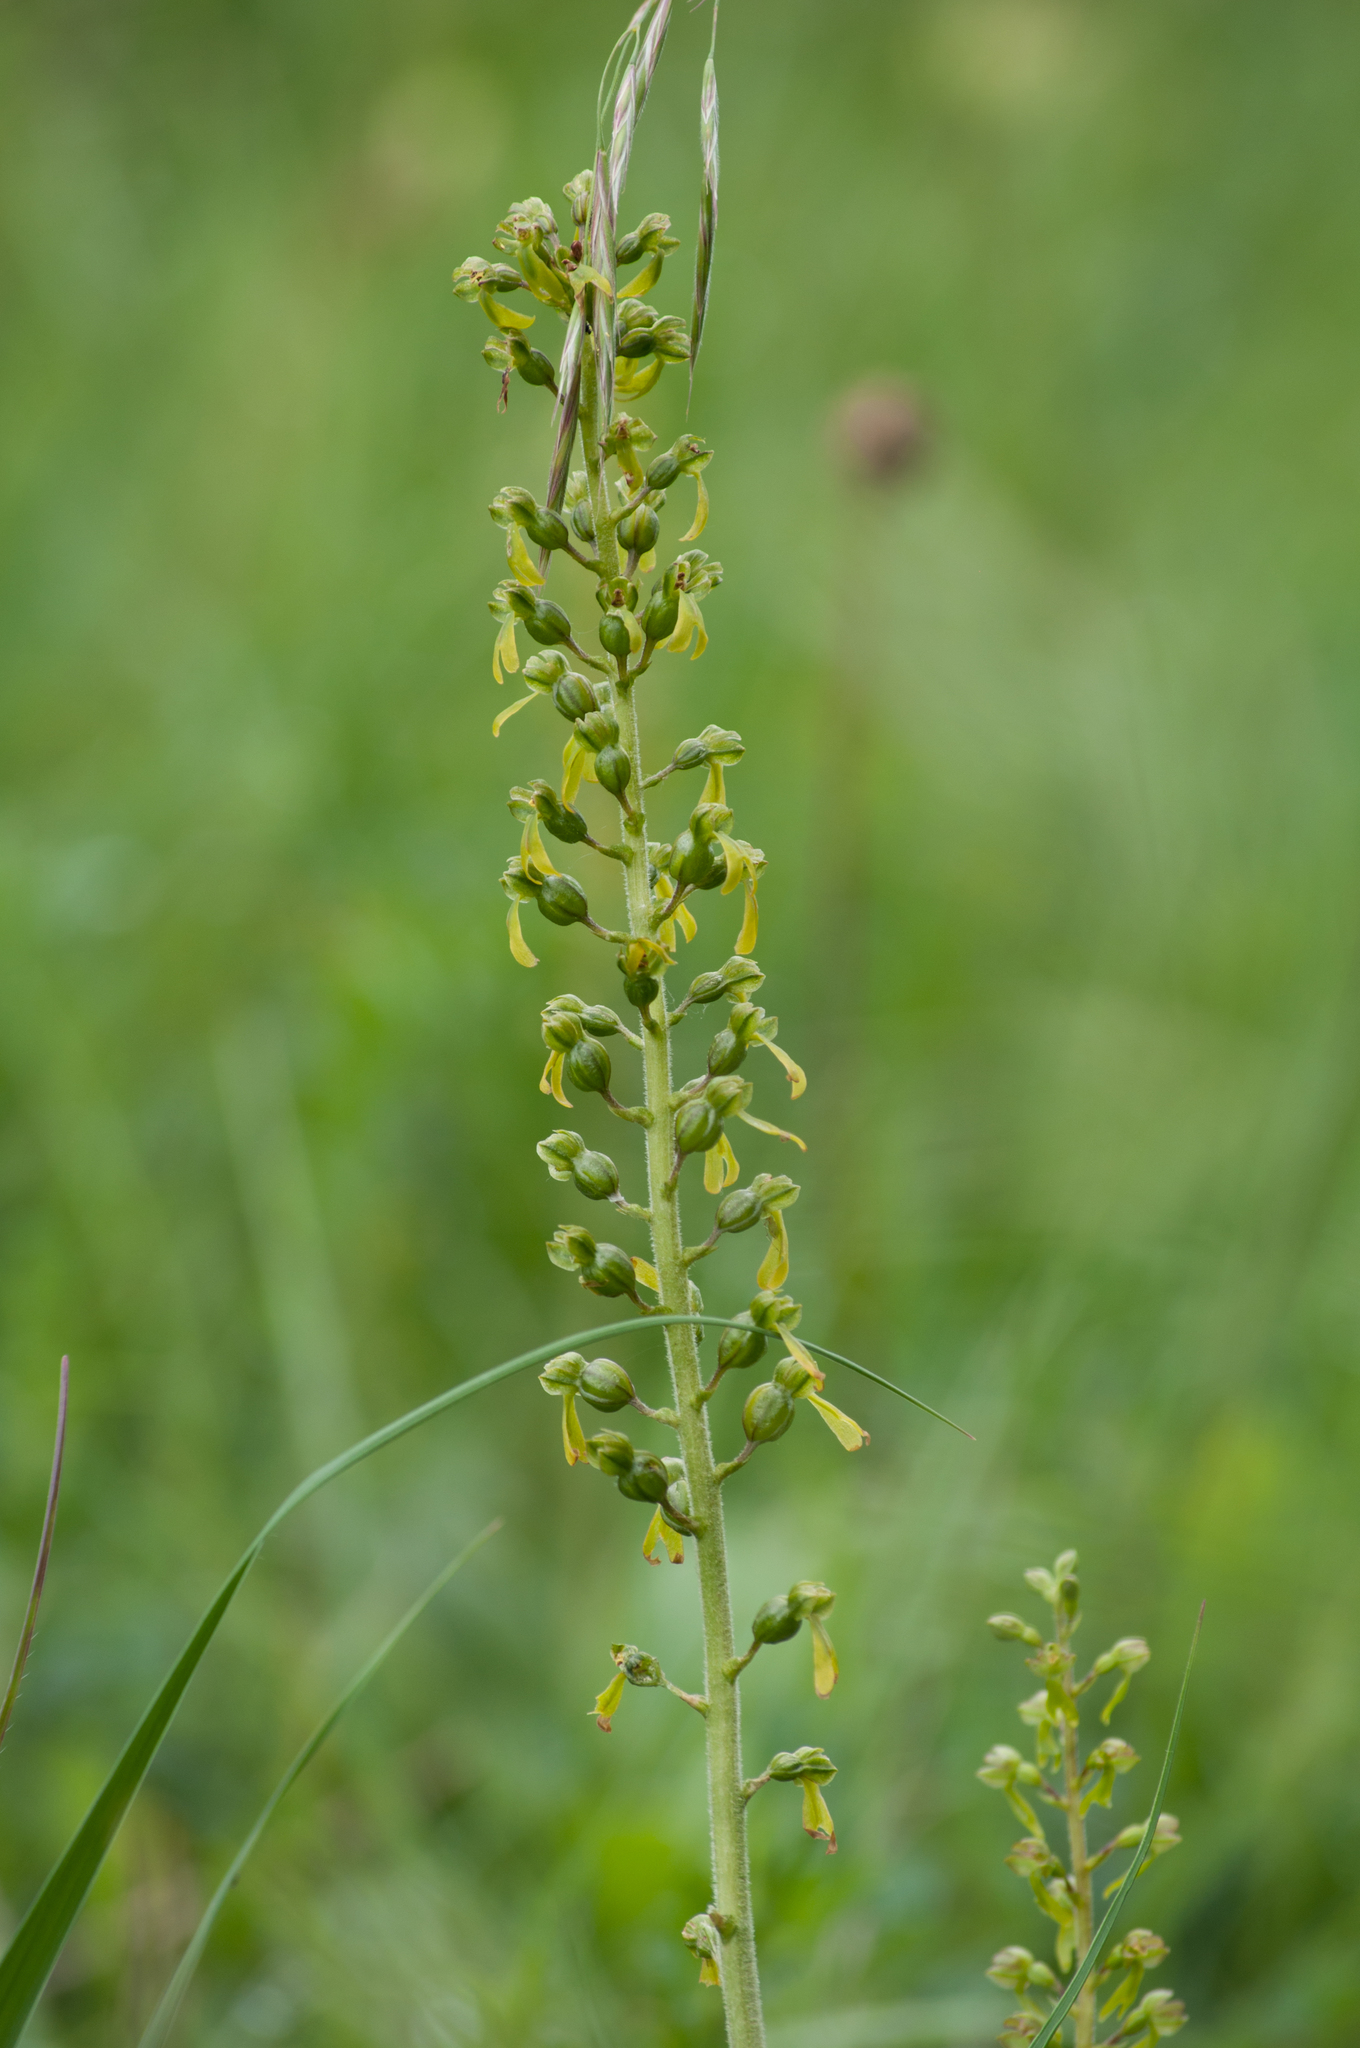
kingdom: Plantae
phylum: Tracheophyta
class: Liliopsida
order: Asparagales
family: Orchidaceae
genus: Neottia
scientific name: Neottia ovata
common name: Common twayblade
